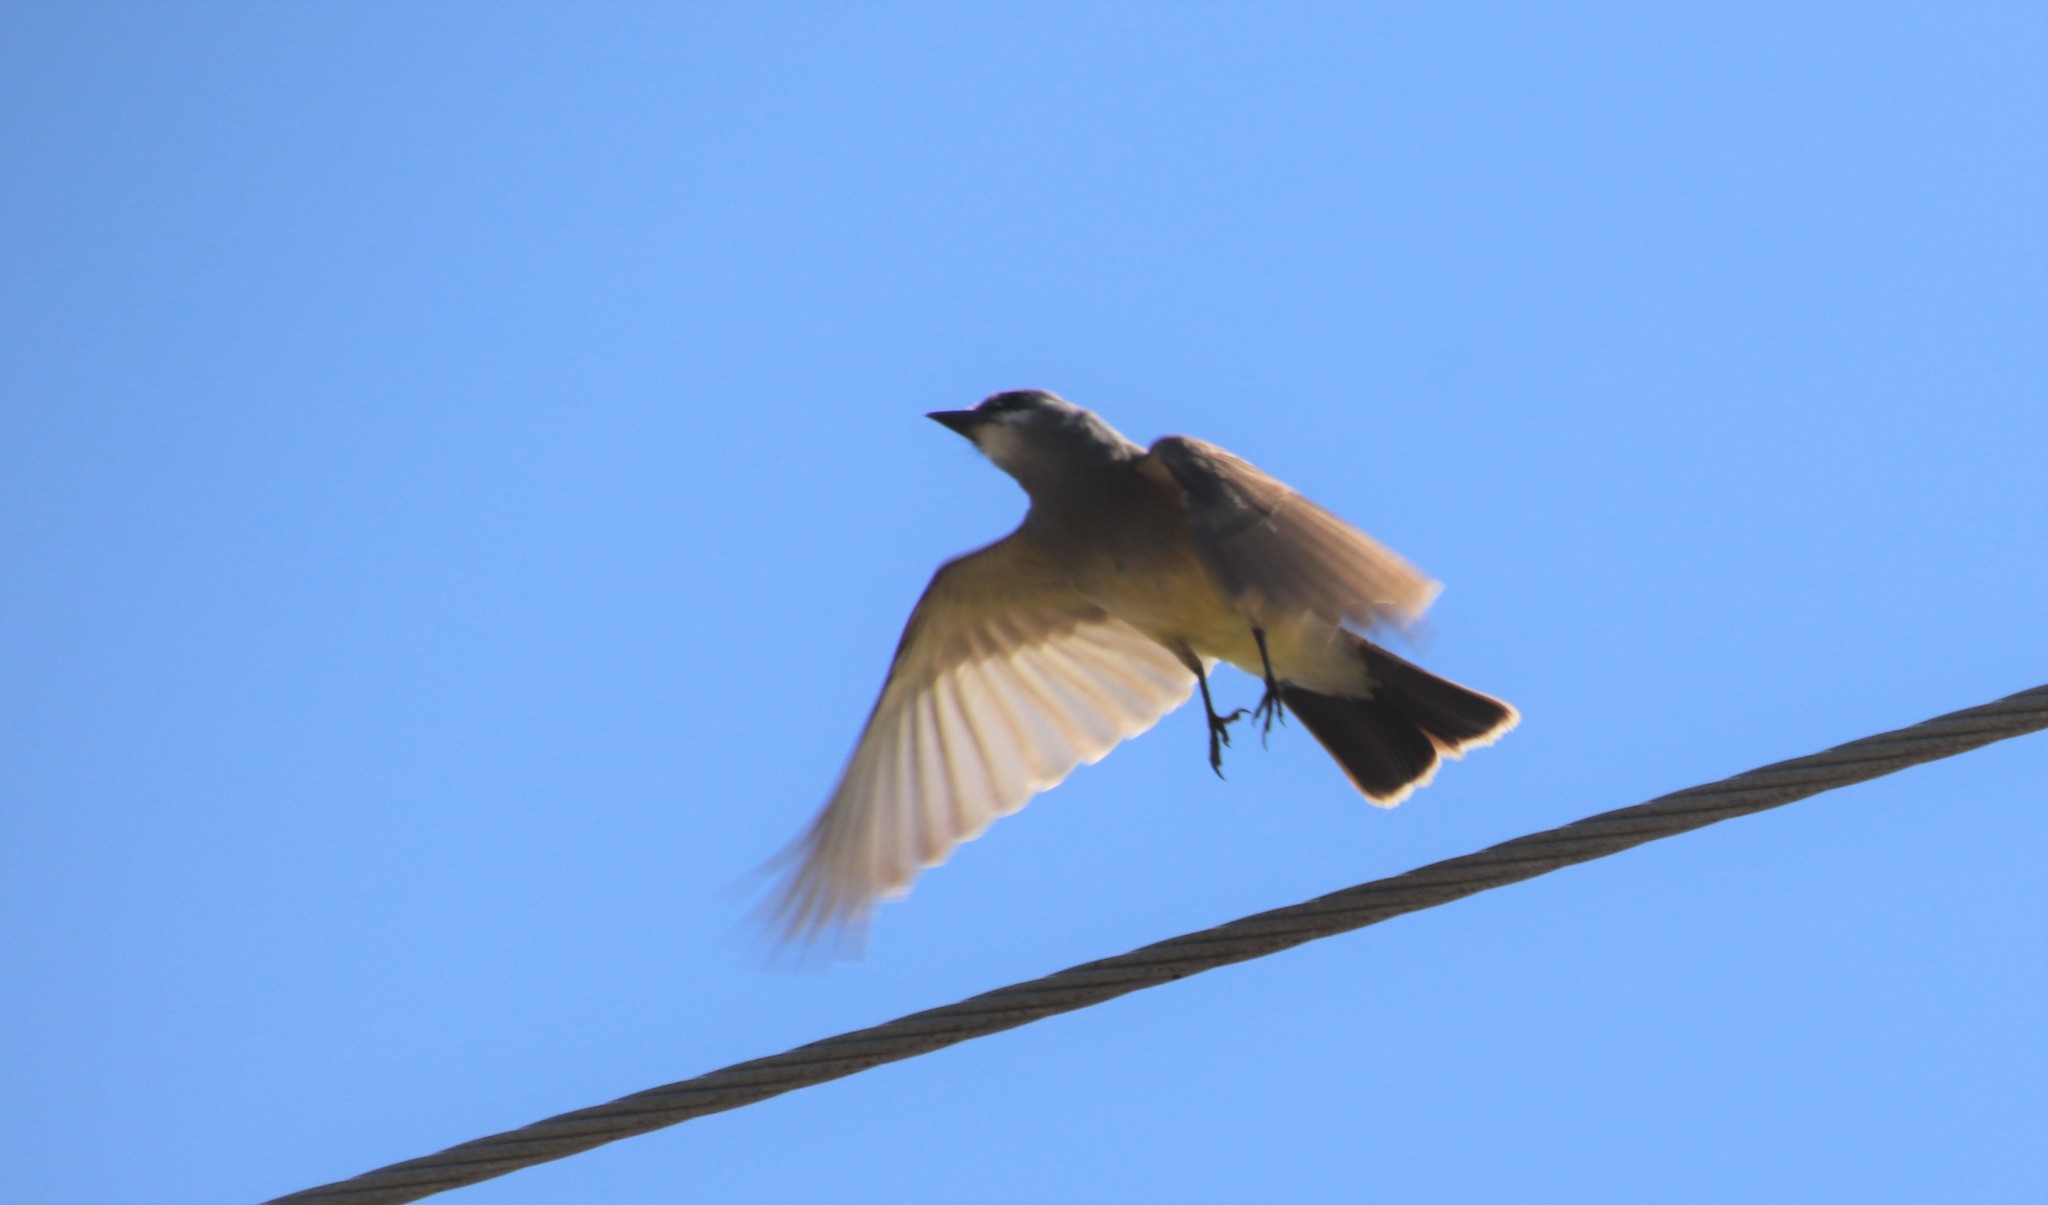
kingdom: Animalia
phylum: Chordata
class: Aves
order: Passeriformes
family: Tyrannidae
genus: Tyrannus
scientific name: Tyrannus vociferans
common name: Cassin's kingbird
